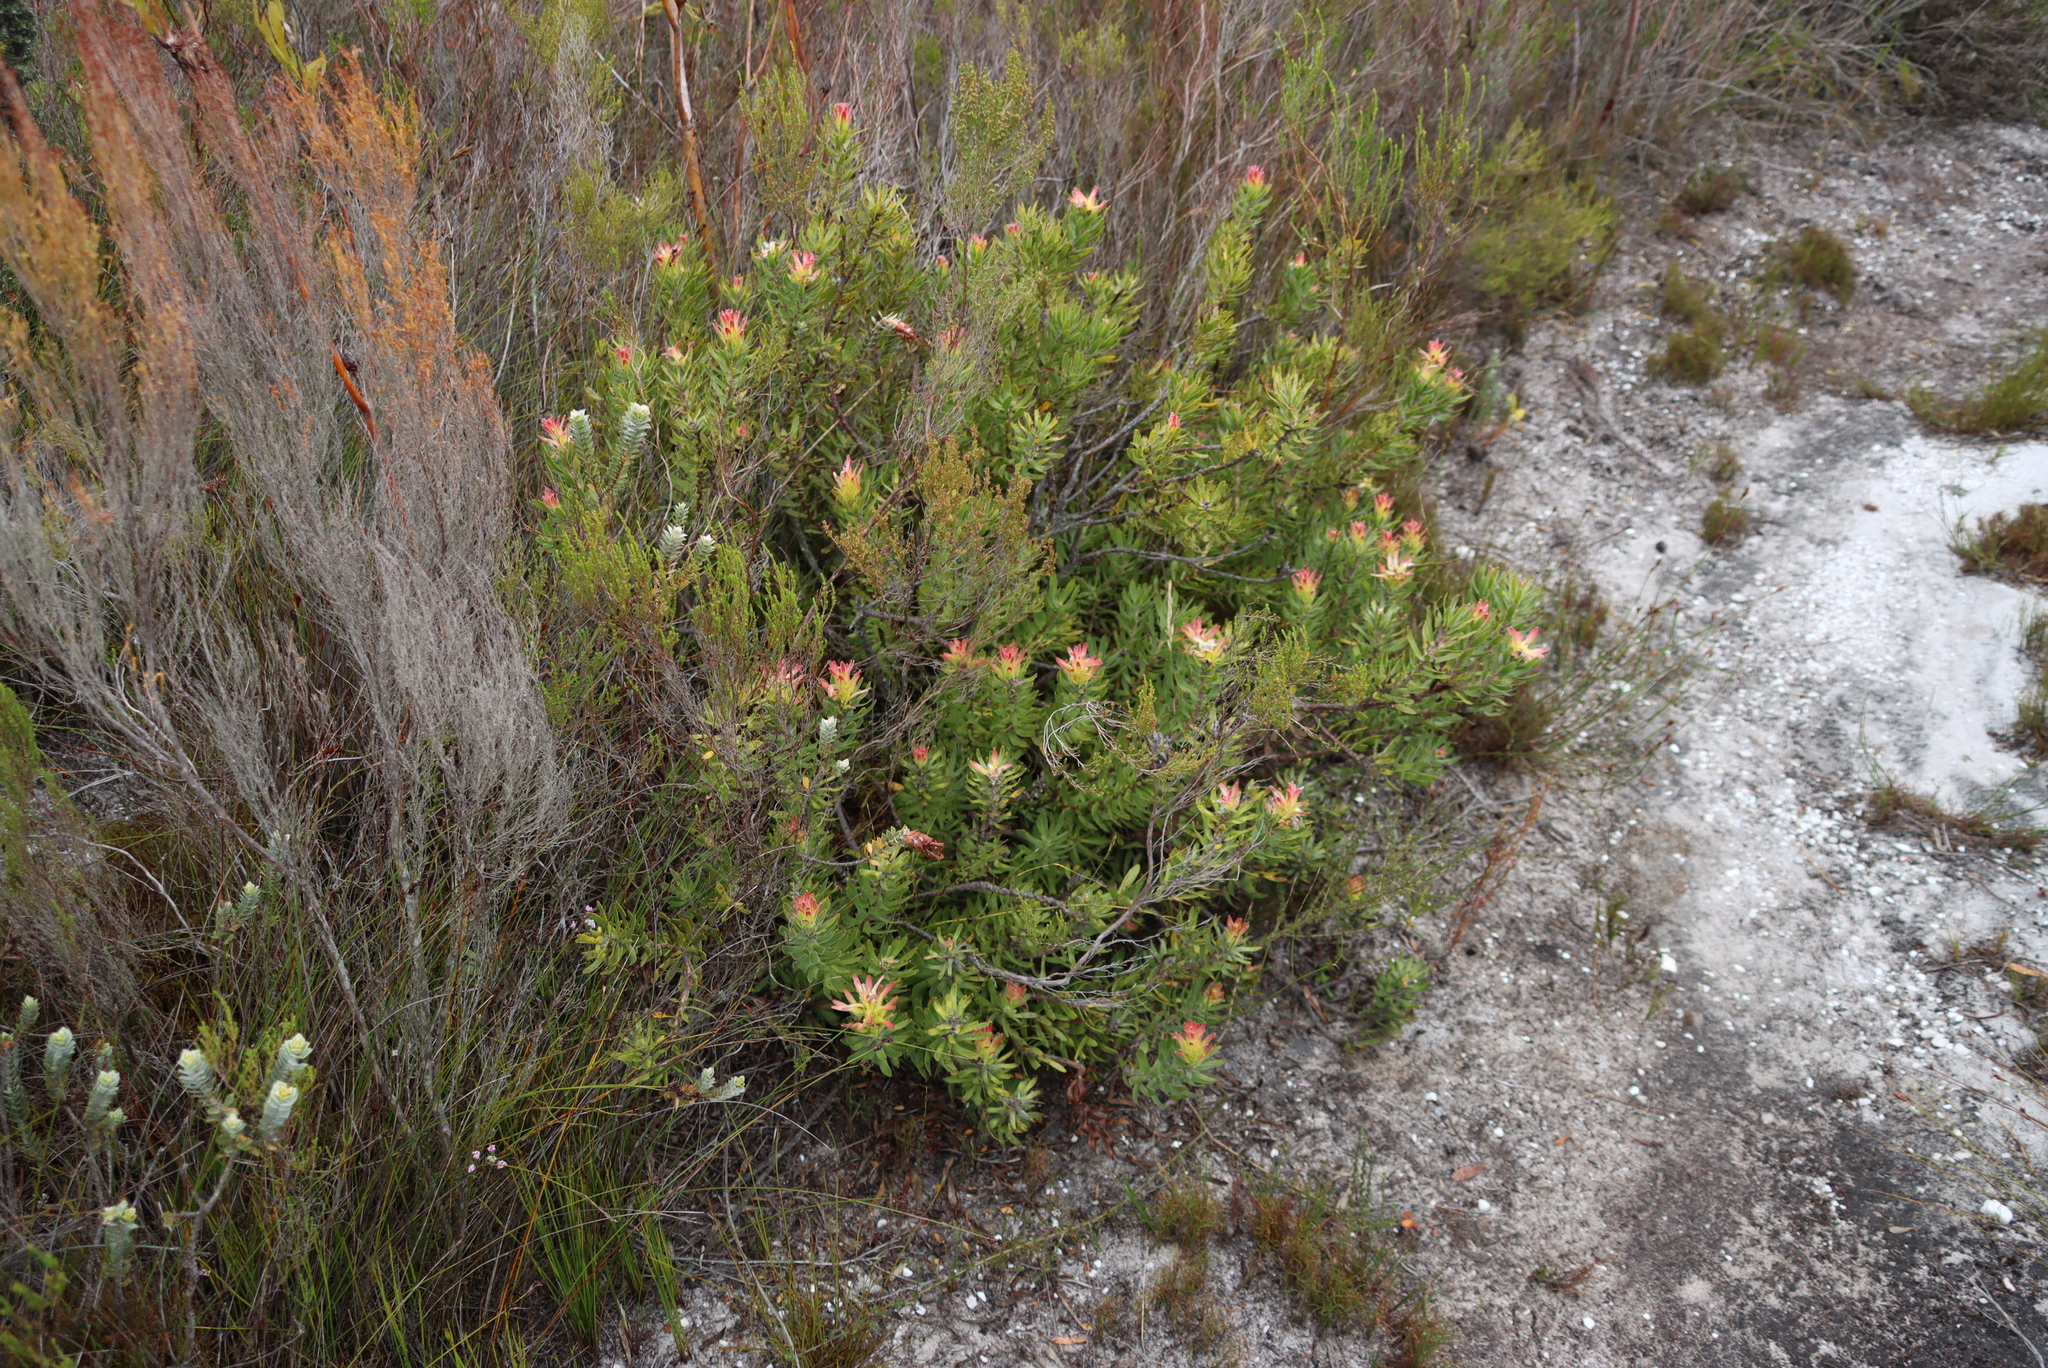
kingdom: Plantae
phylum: Tracheophyta
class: Magnoliopsida
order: Proteales
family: Proteaceae
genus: Mimetes
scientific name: Mimetes cucullatus
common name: Common pagoda
